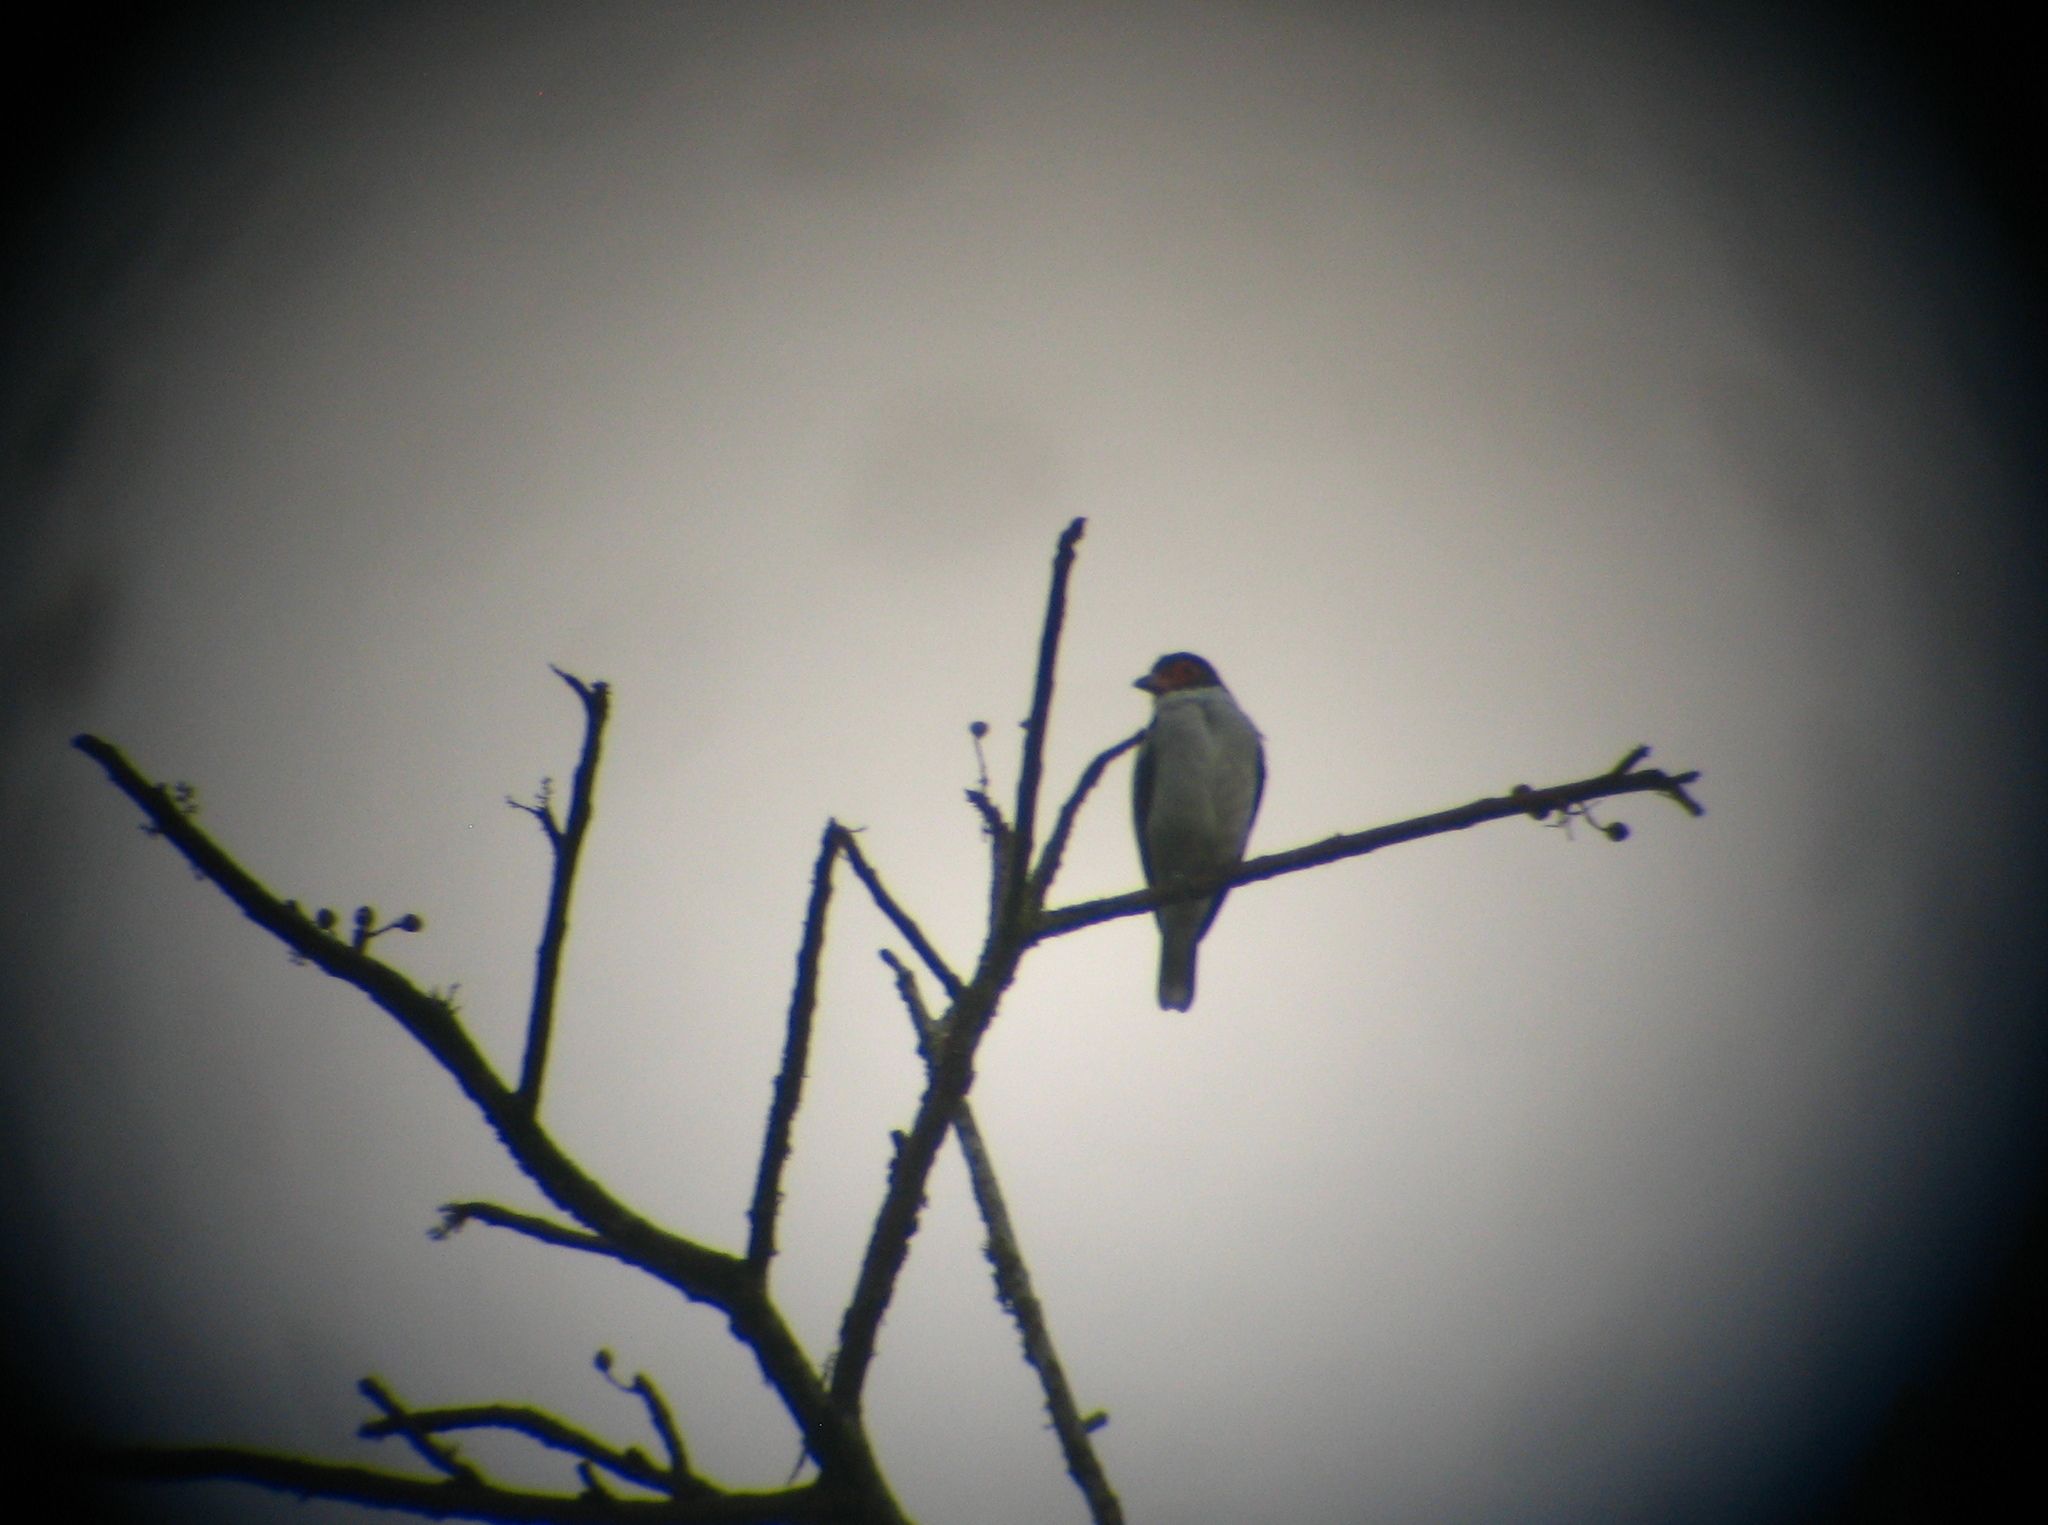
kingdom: Animalia
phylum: Chordata
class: Aves
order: Passeriformes
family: Cotingidae
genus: Tityra
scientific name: Tityra semifasciata
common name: Masked tityra
